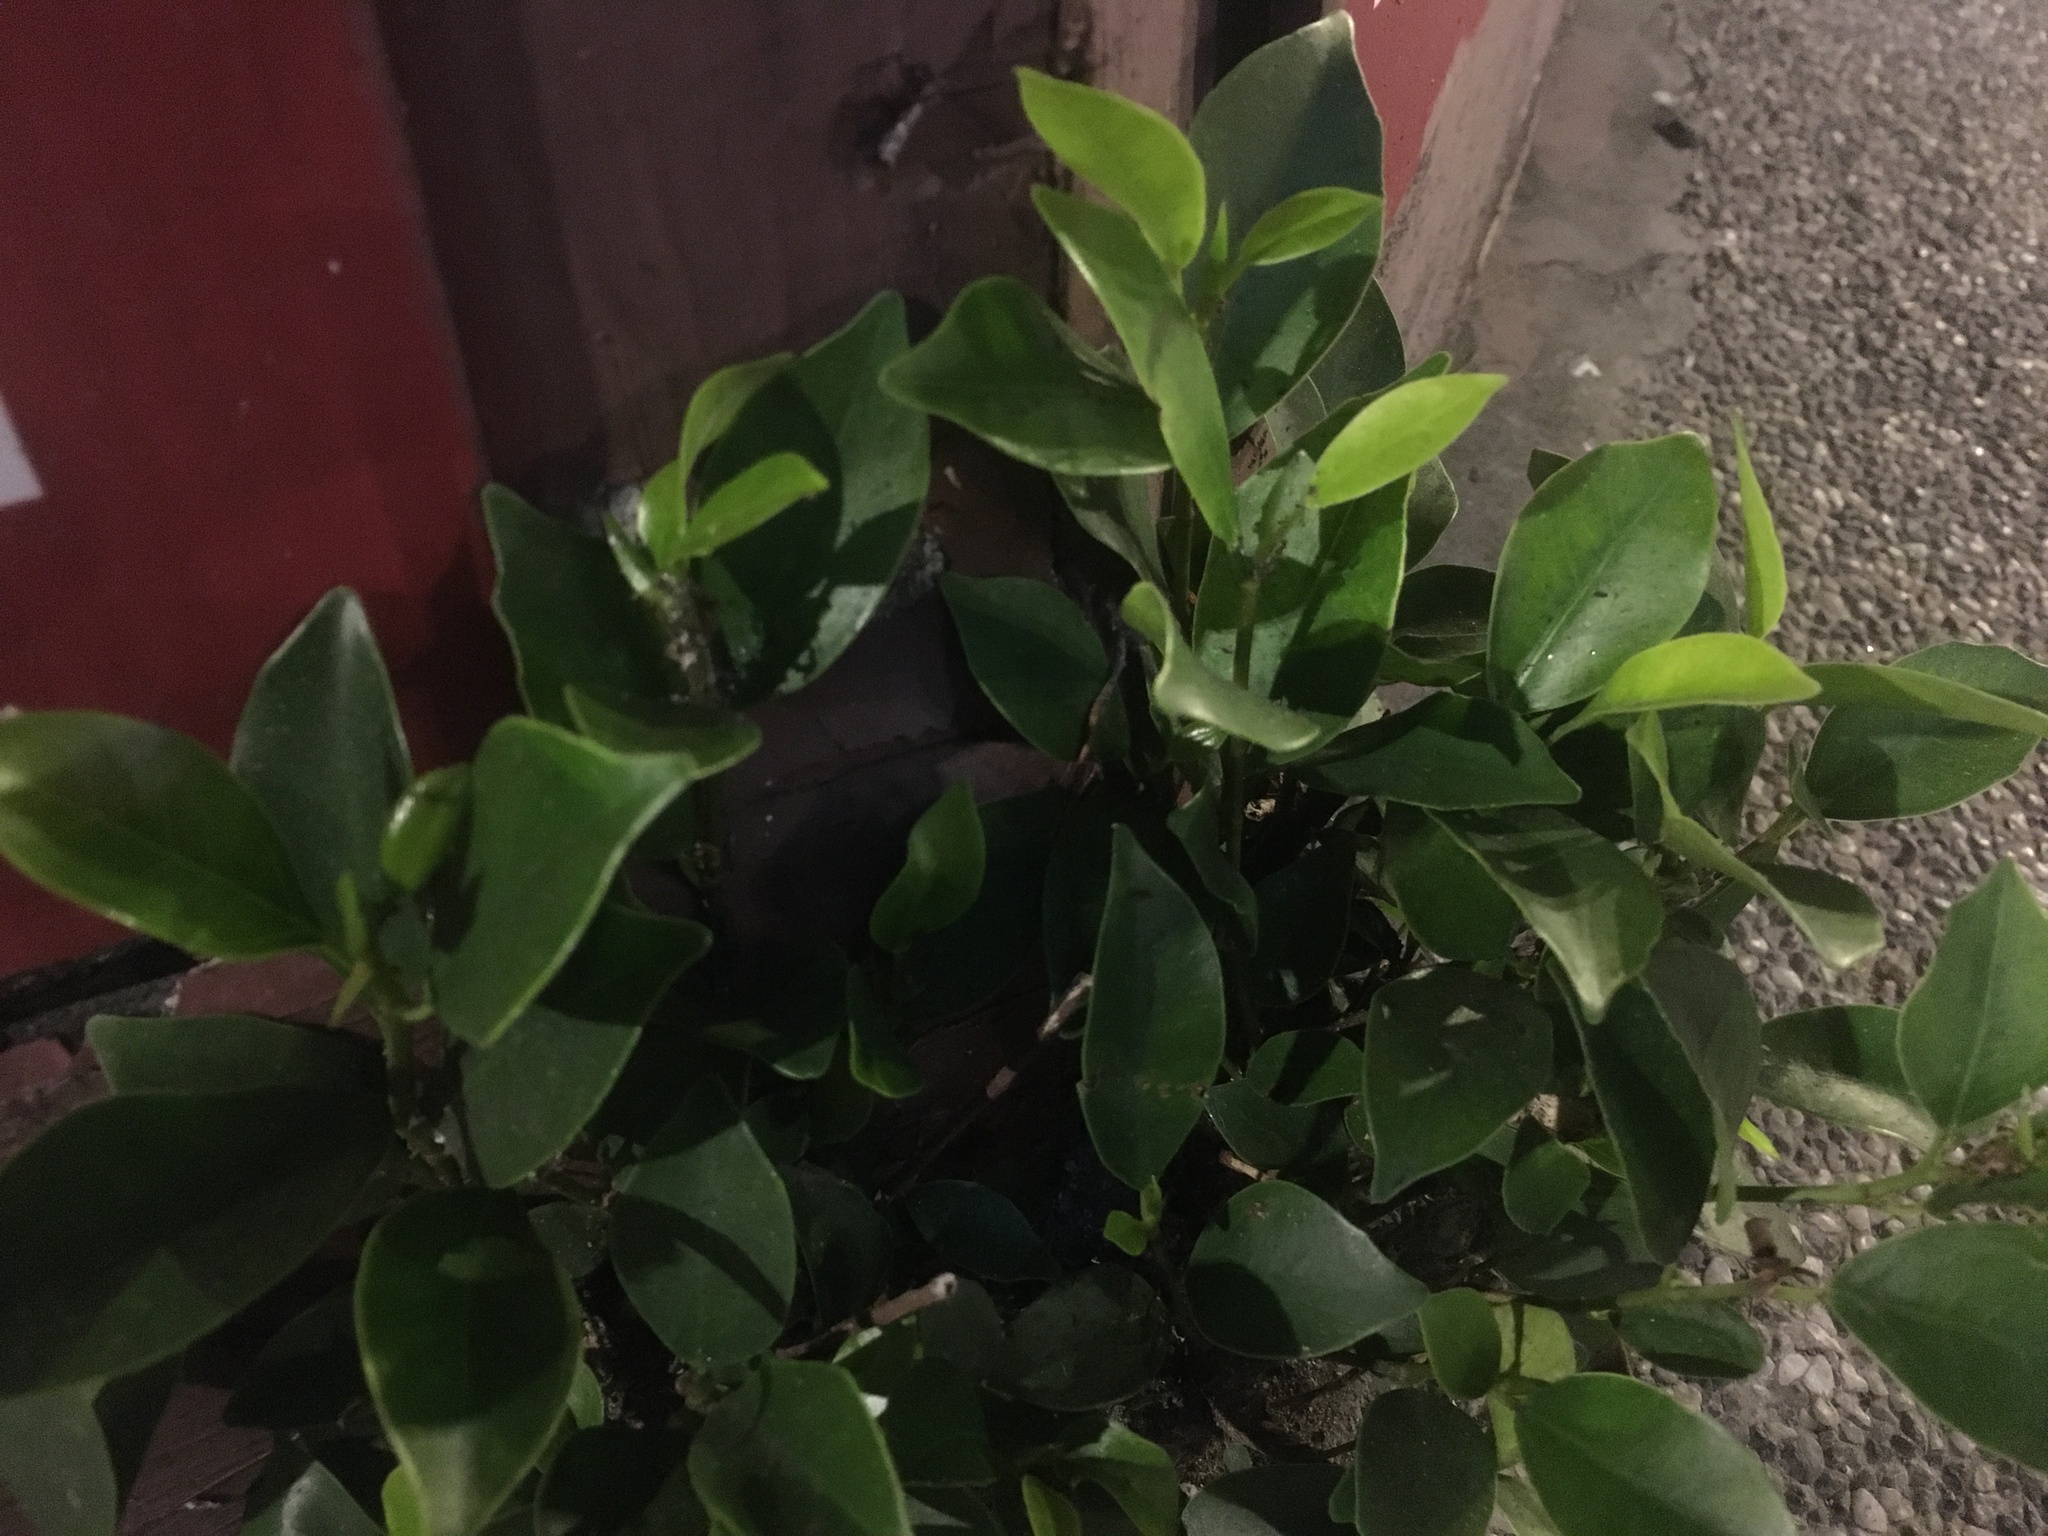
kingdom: Plantae
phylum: Tracheophyta
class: Magnoliopsida
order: Rosales
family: Moraceae
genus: Ficus
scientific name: Ficus microcarpa
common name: Chinese banyan
